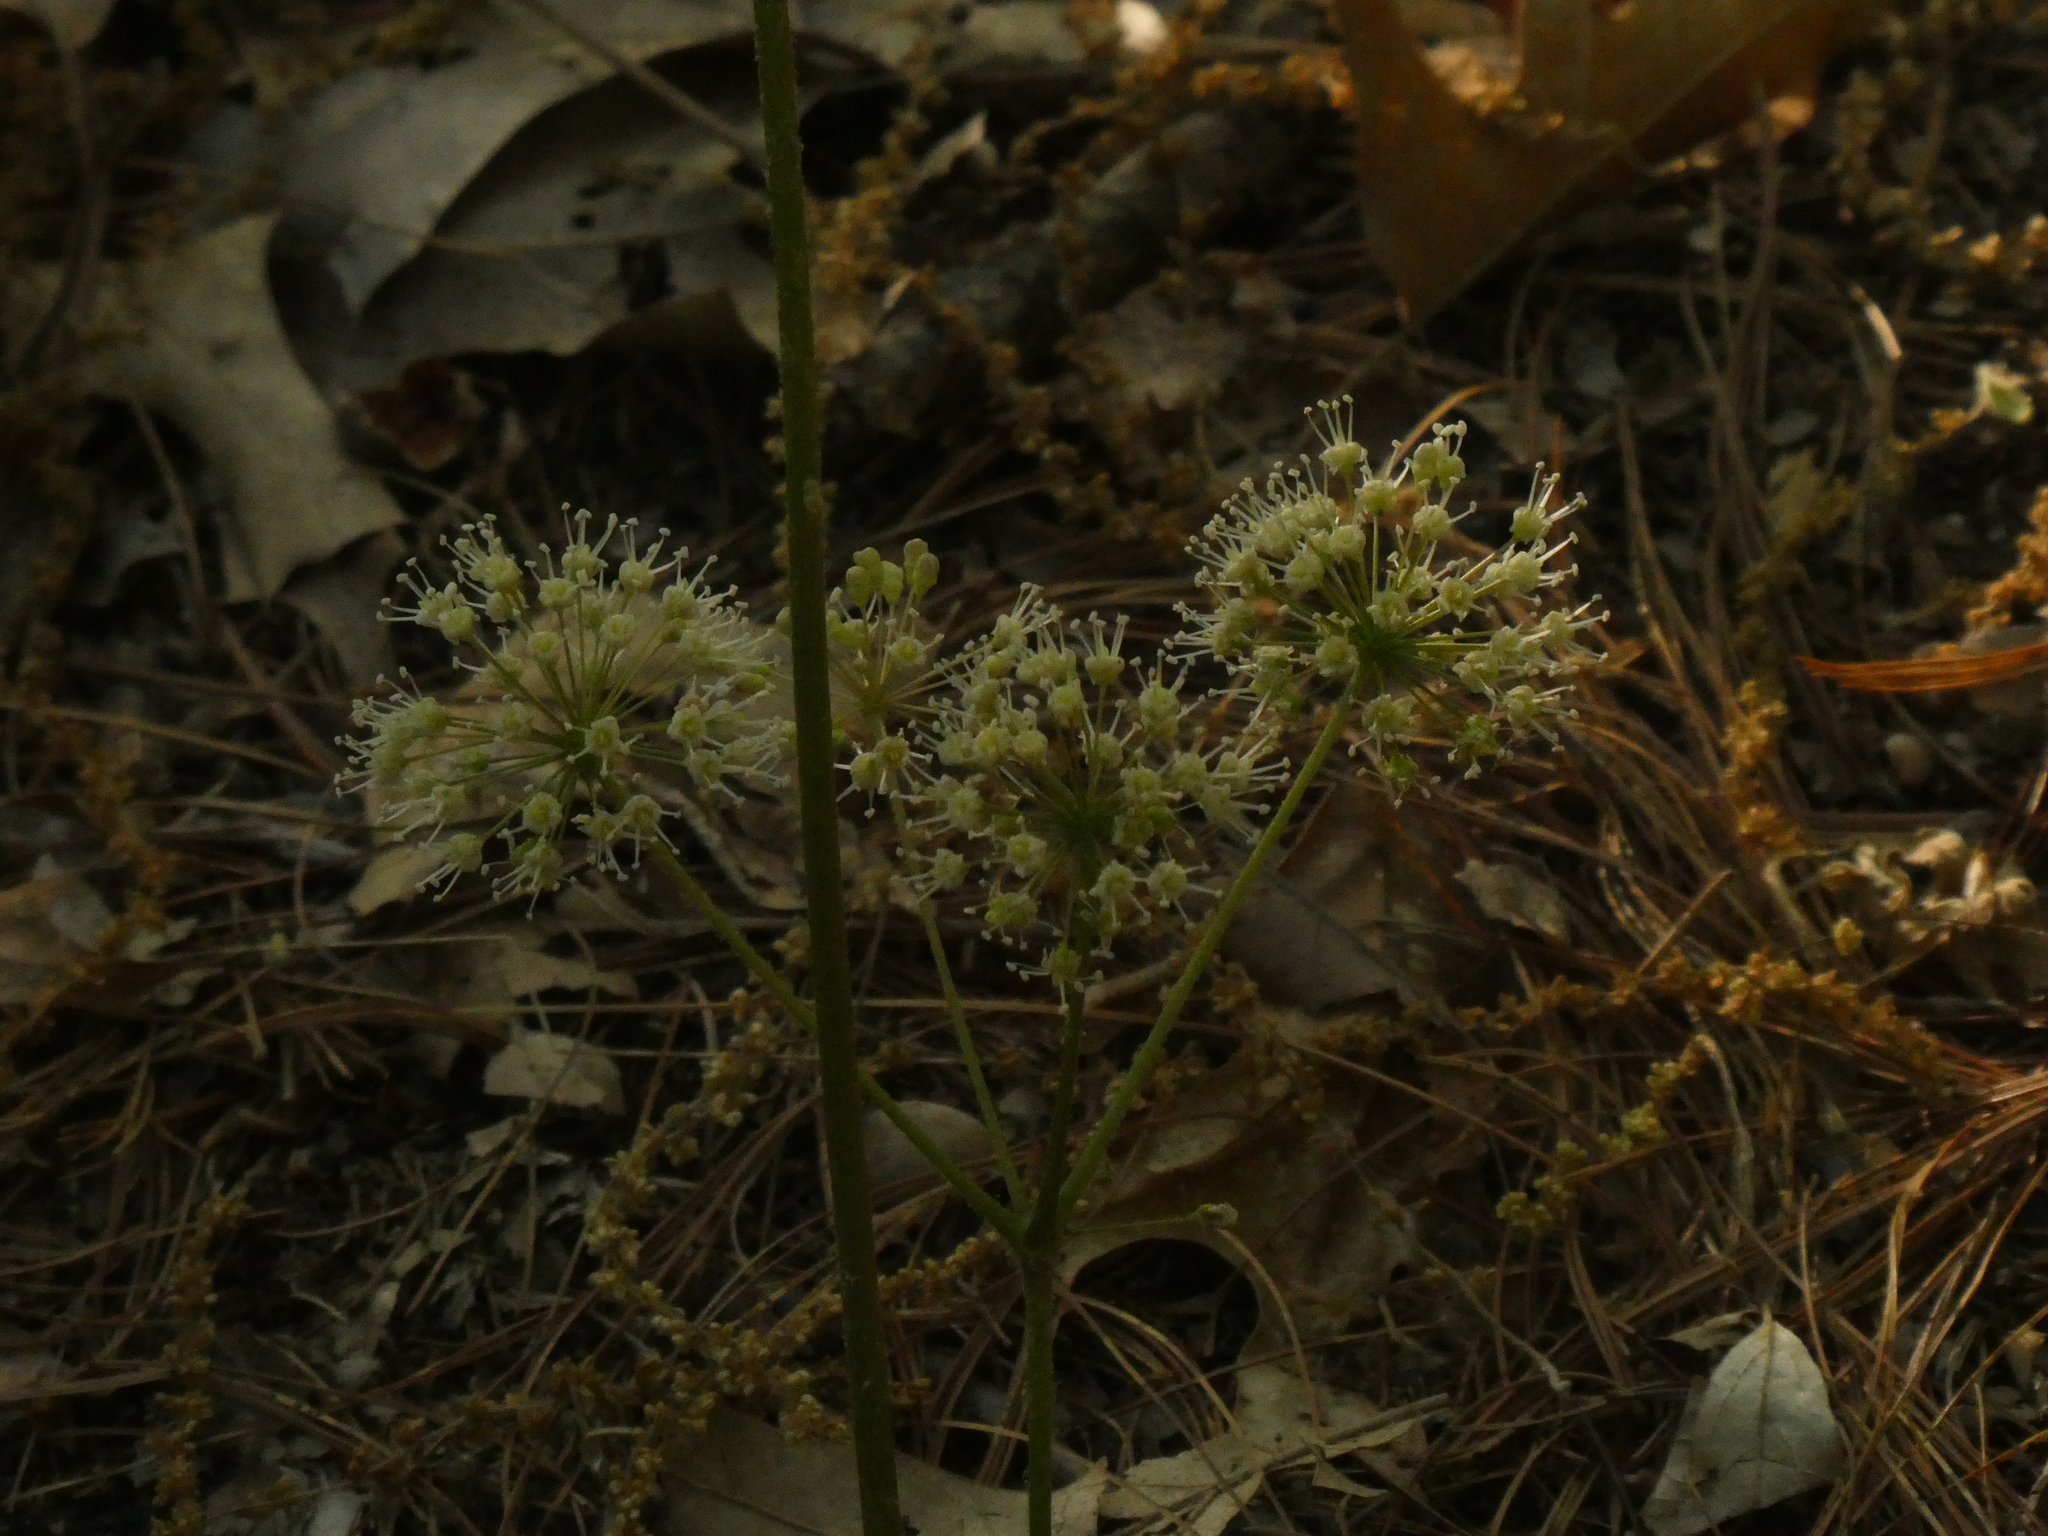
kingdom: Plantae
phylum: Tracheophyta
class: Magnoliopsida
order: Apiales
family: Araliaceae
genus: Aralia
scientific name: Aralia nudicaulis
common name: Wild sarsaparilla
